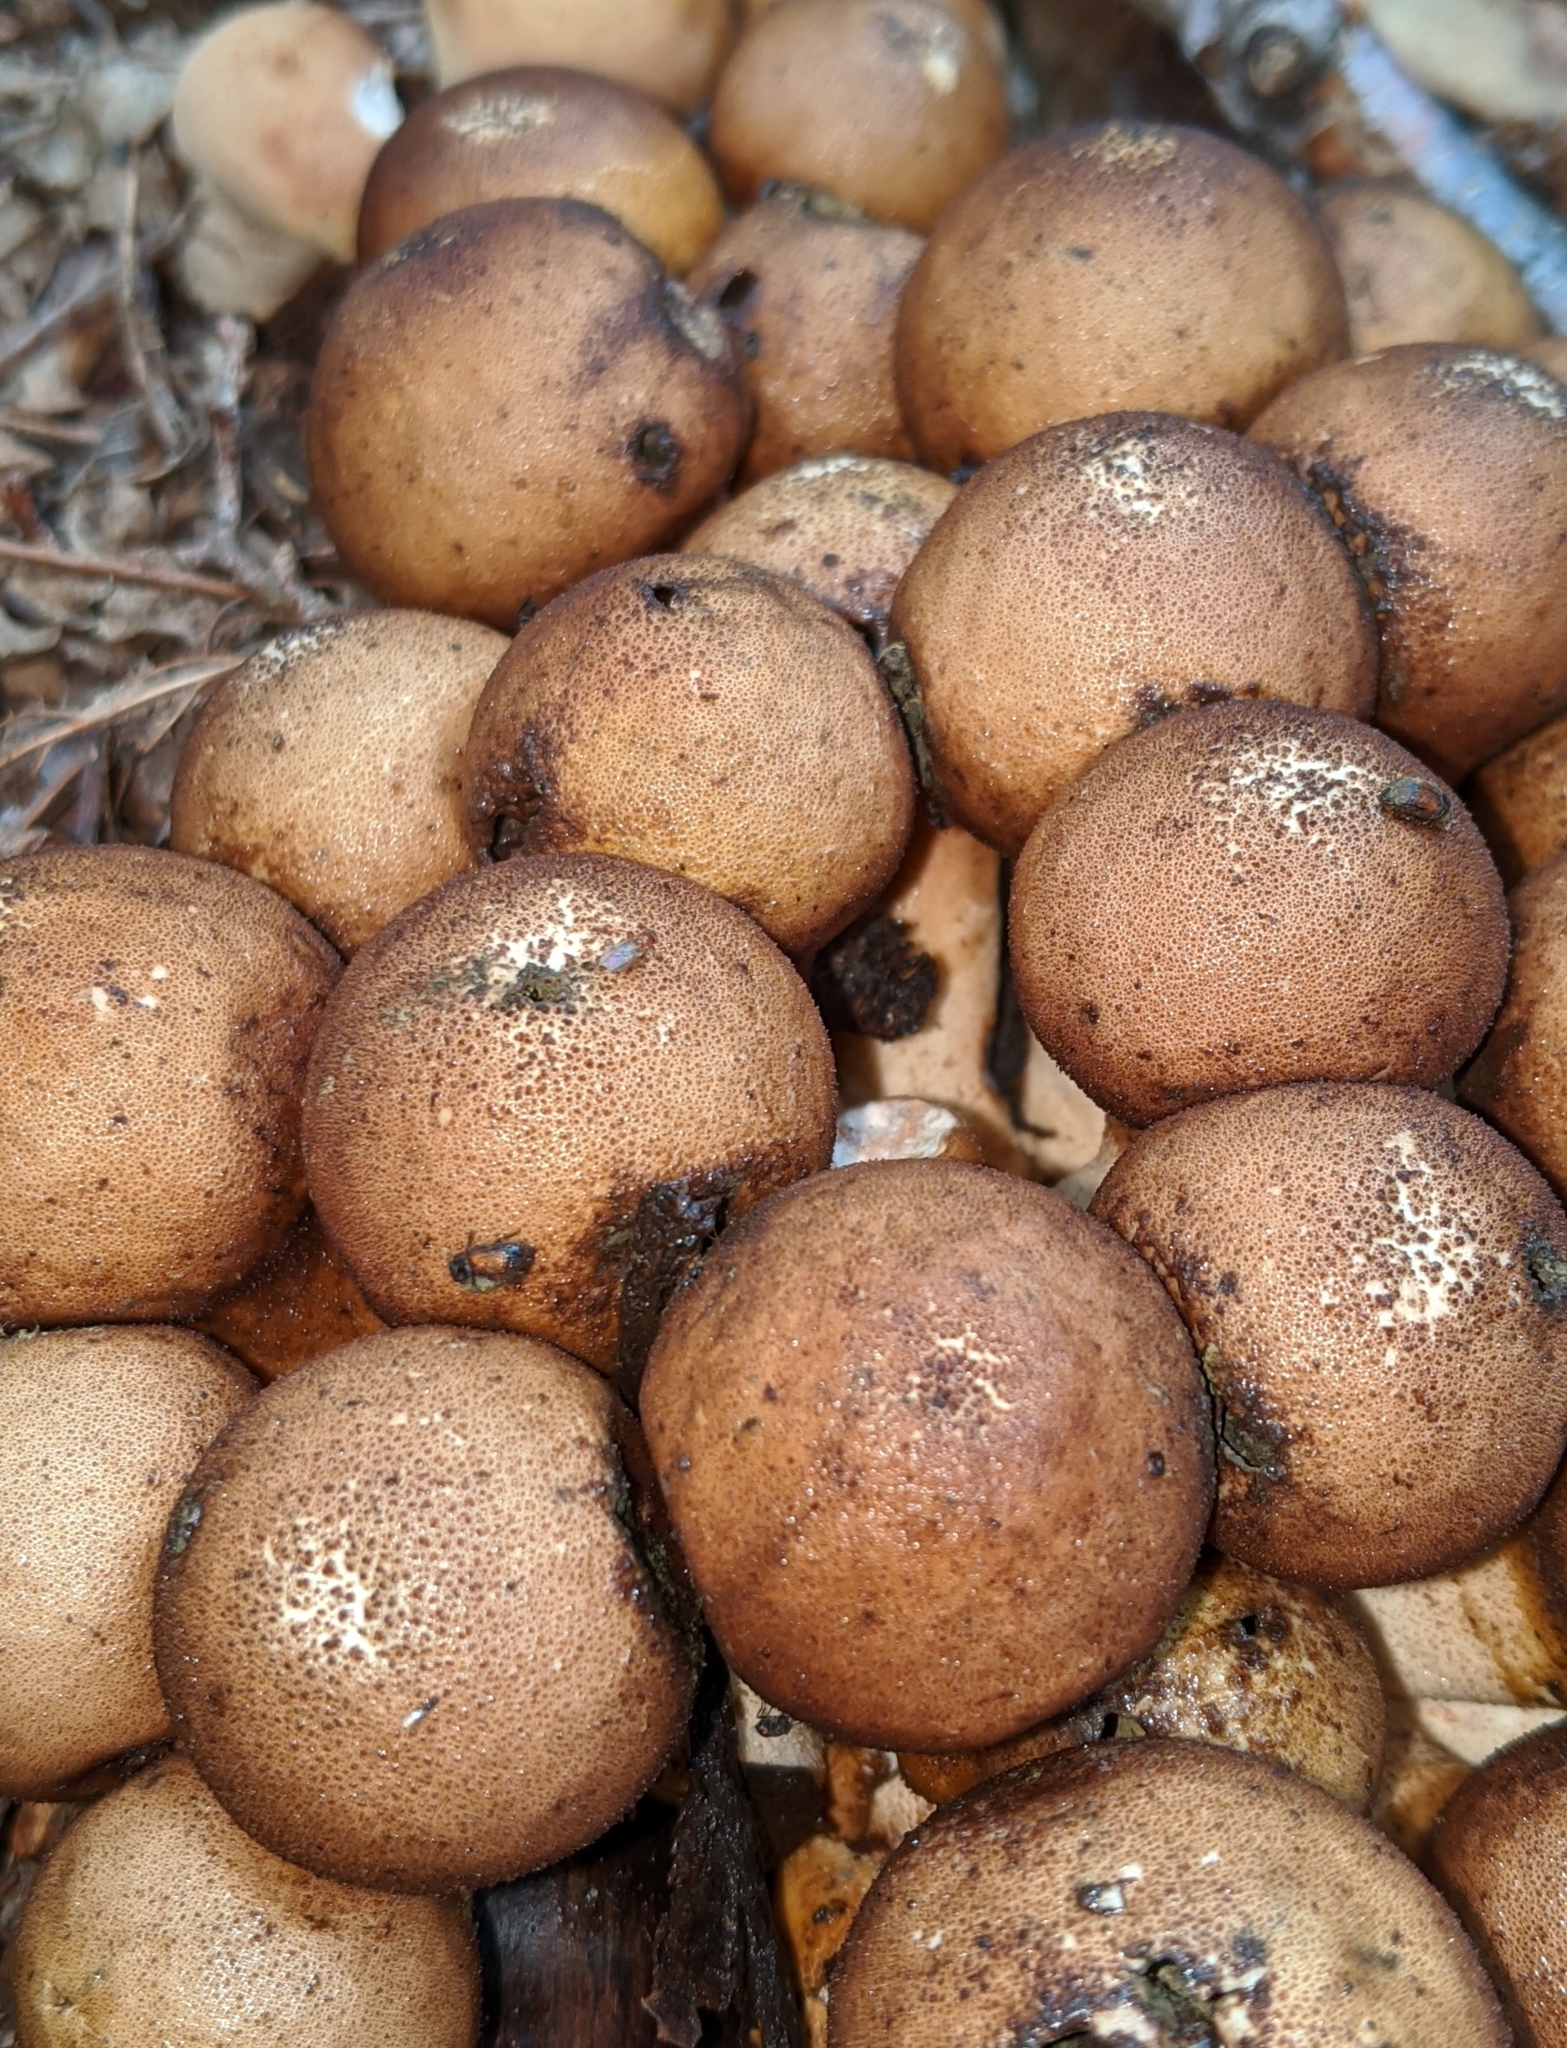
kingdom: Fungi
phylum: Basidiomycota
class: Agaricomycetes
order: Agaricales
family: Lycoperdaceae
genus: Apioperdon
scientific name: Apioperdon pyriforme
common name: Pear-shaped puffball
